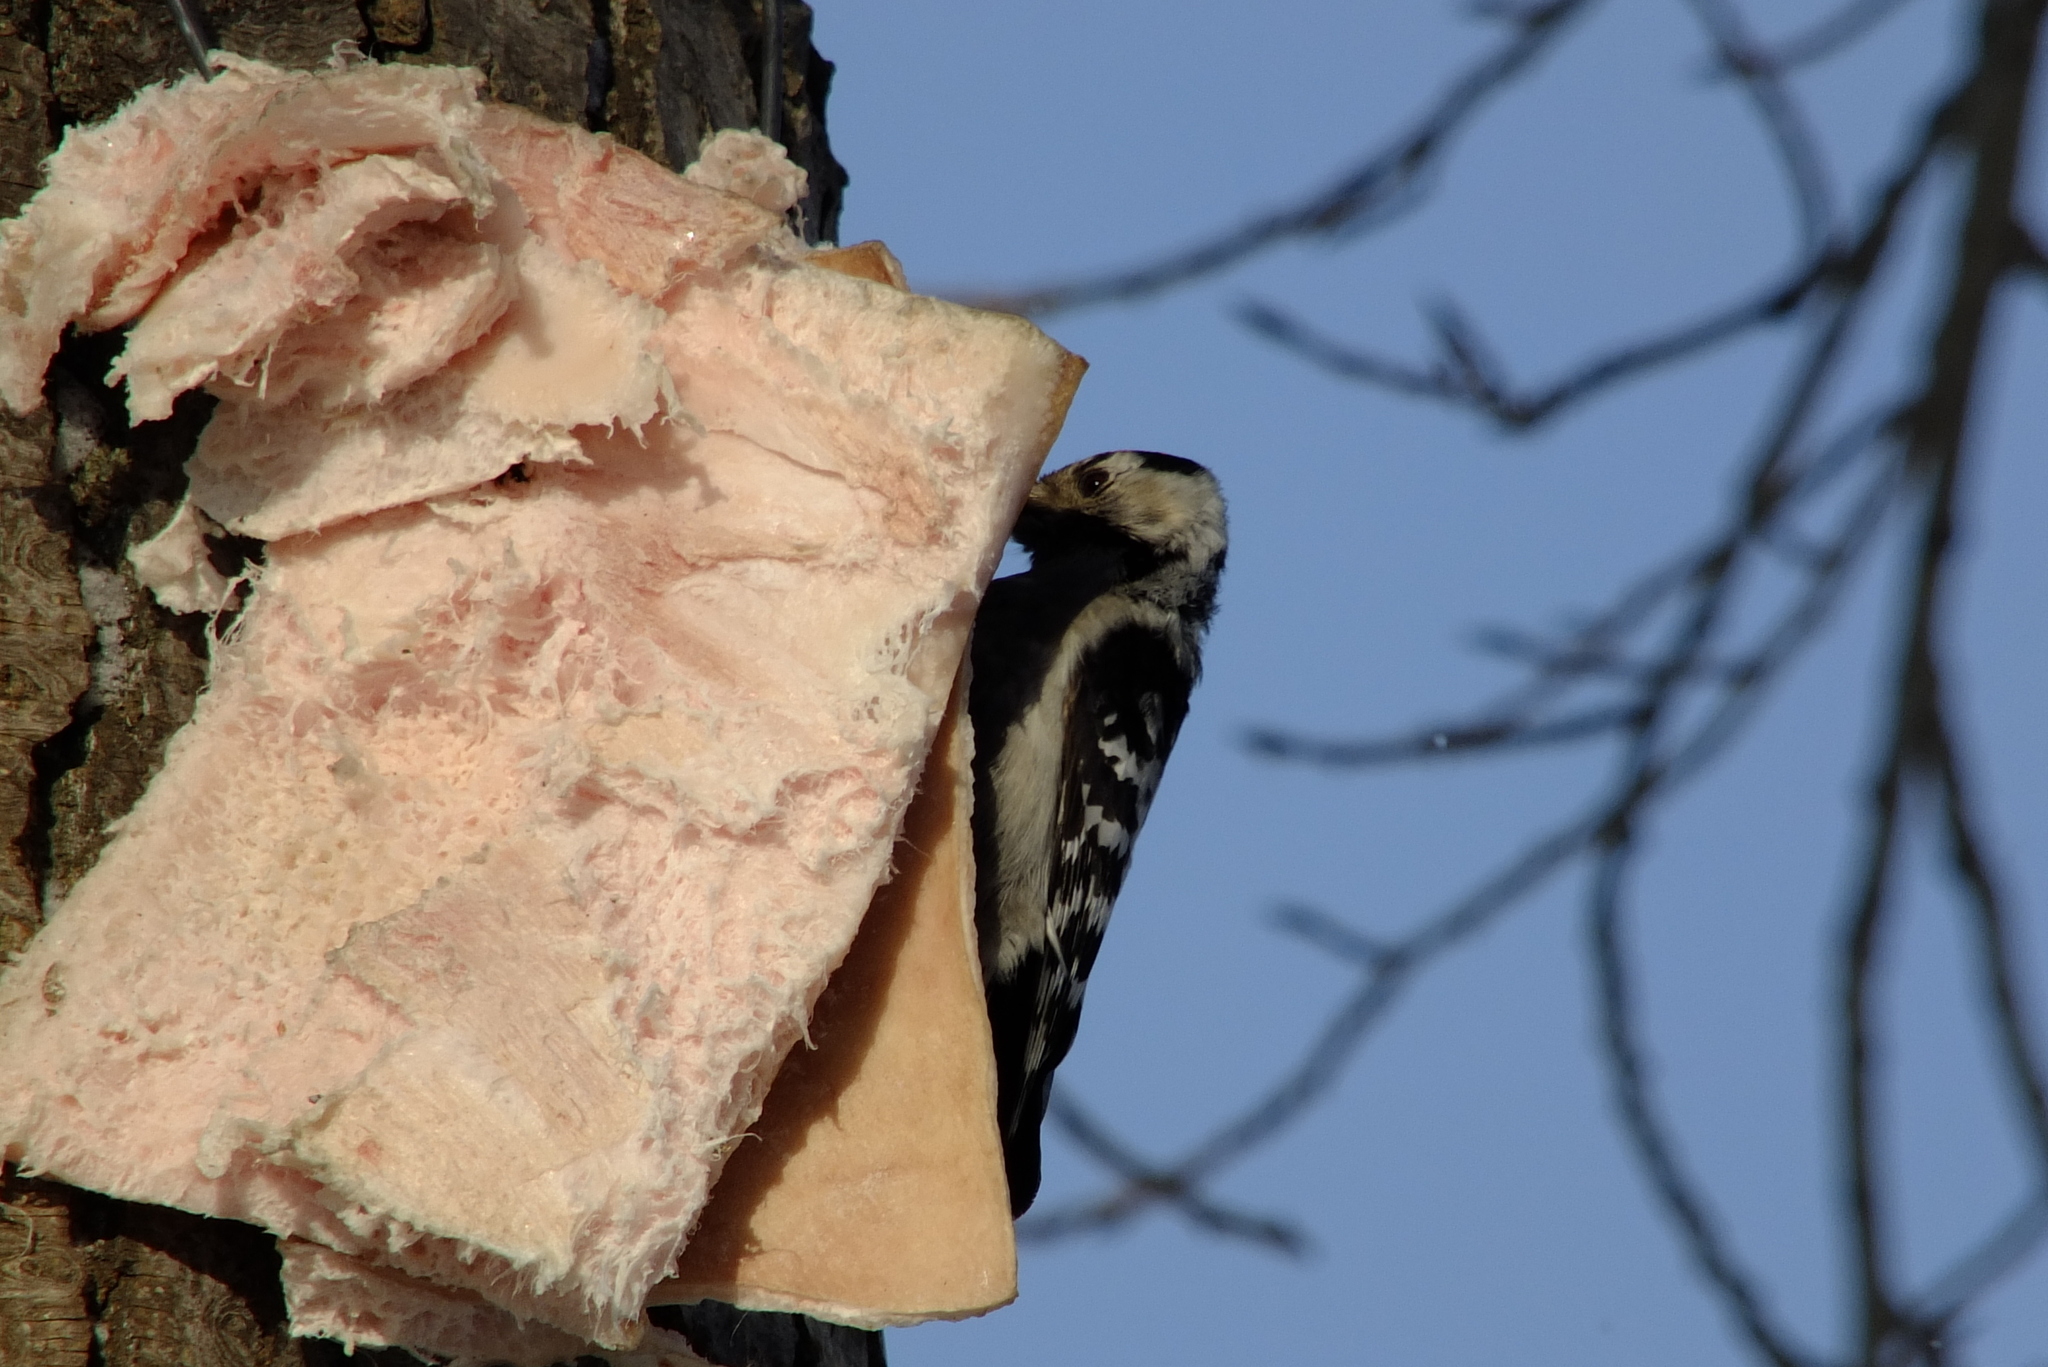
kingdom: Animalia
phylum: Chordata
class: Aves
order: Piciformes
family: Picidae
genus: Dryobates
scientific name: Dryobates minor
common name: Lesser spotted woodpecker
